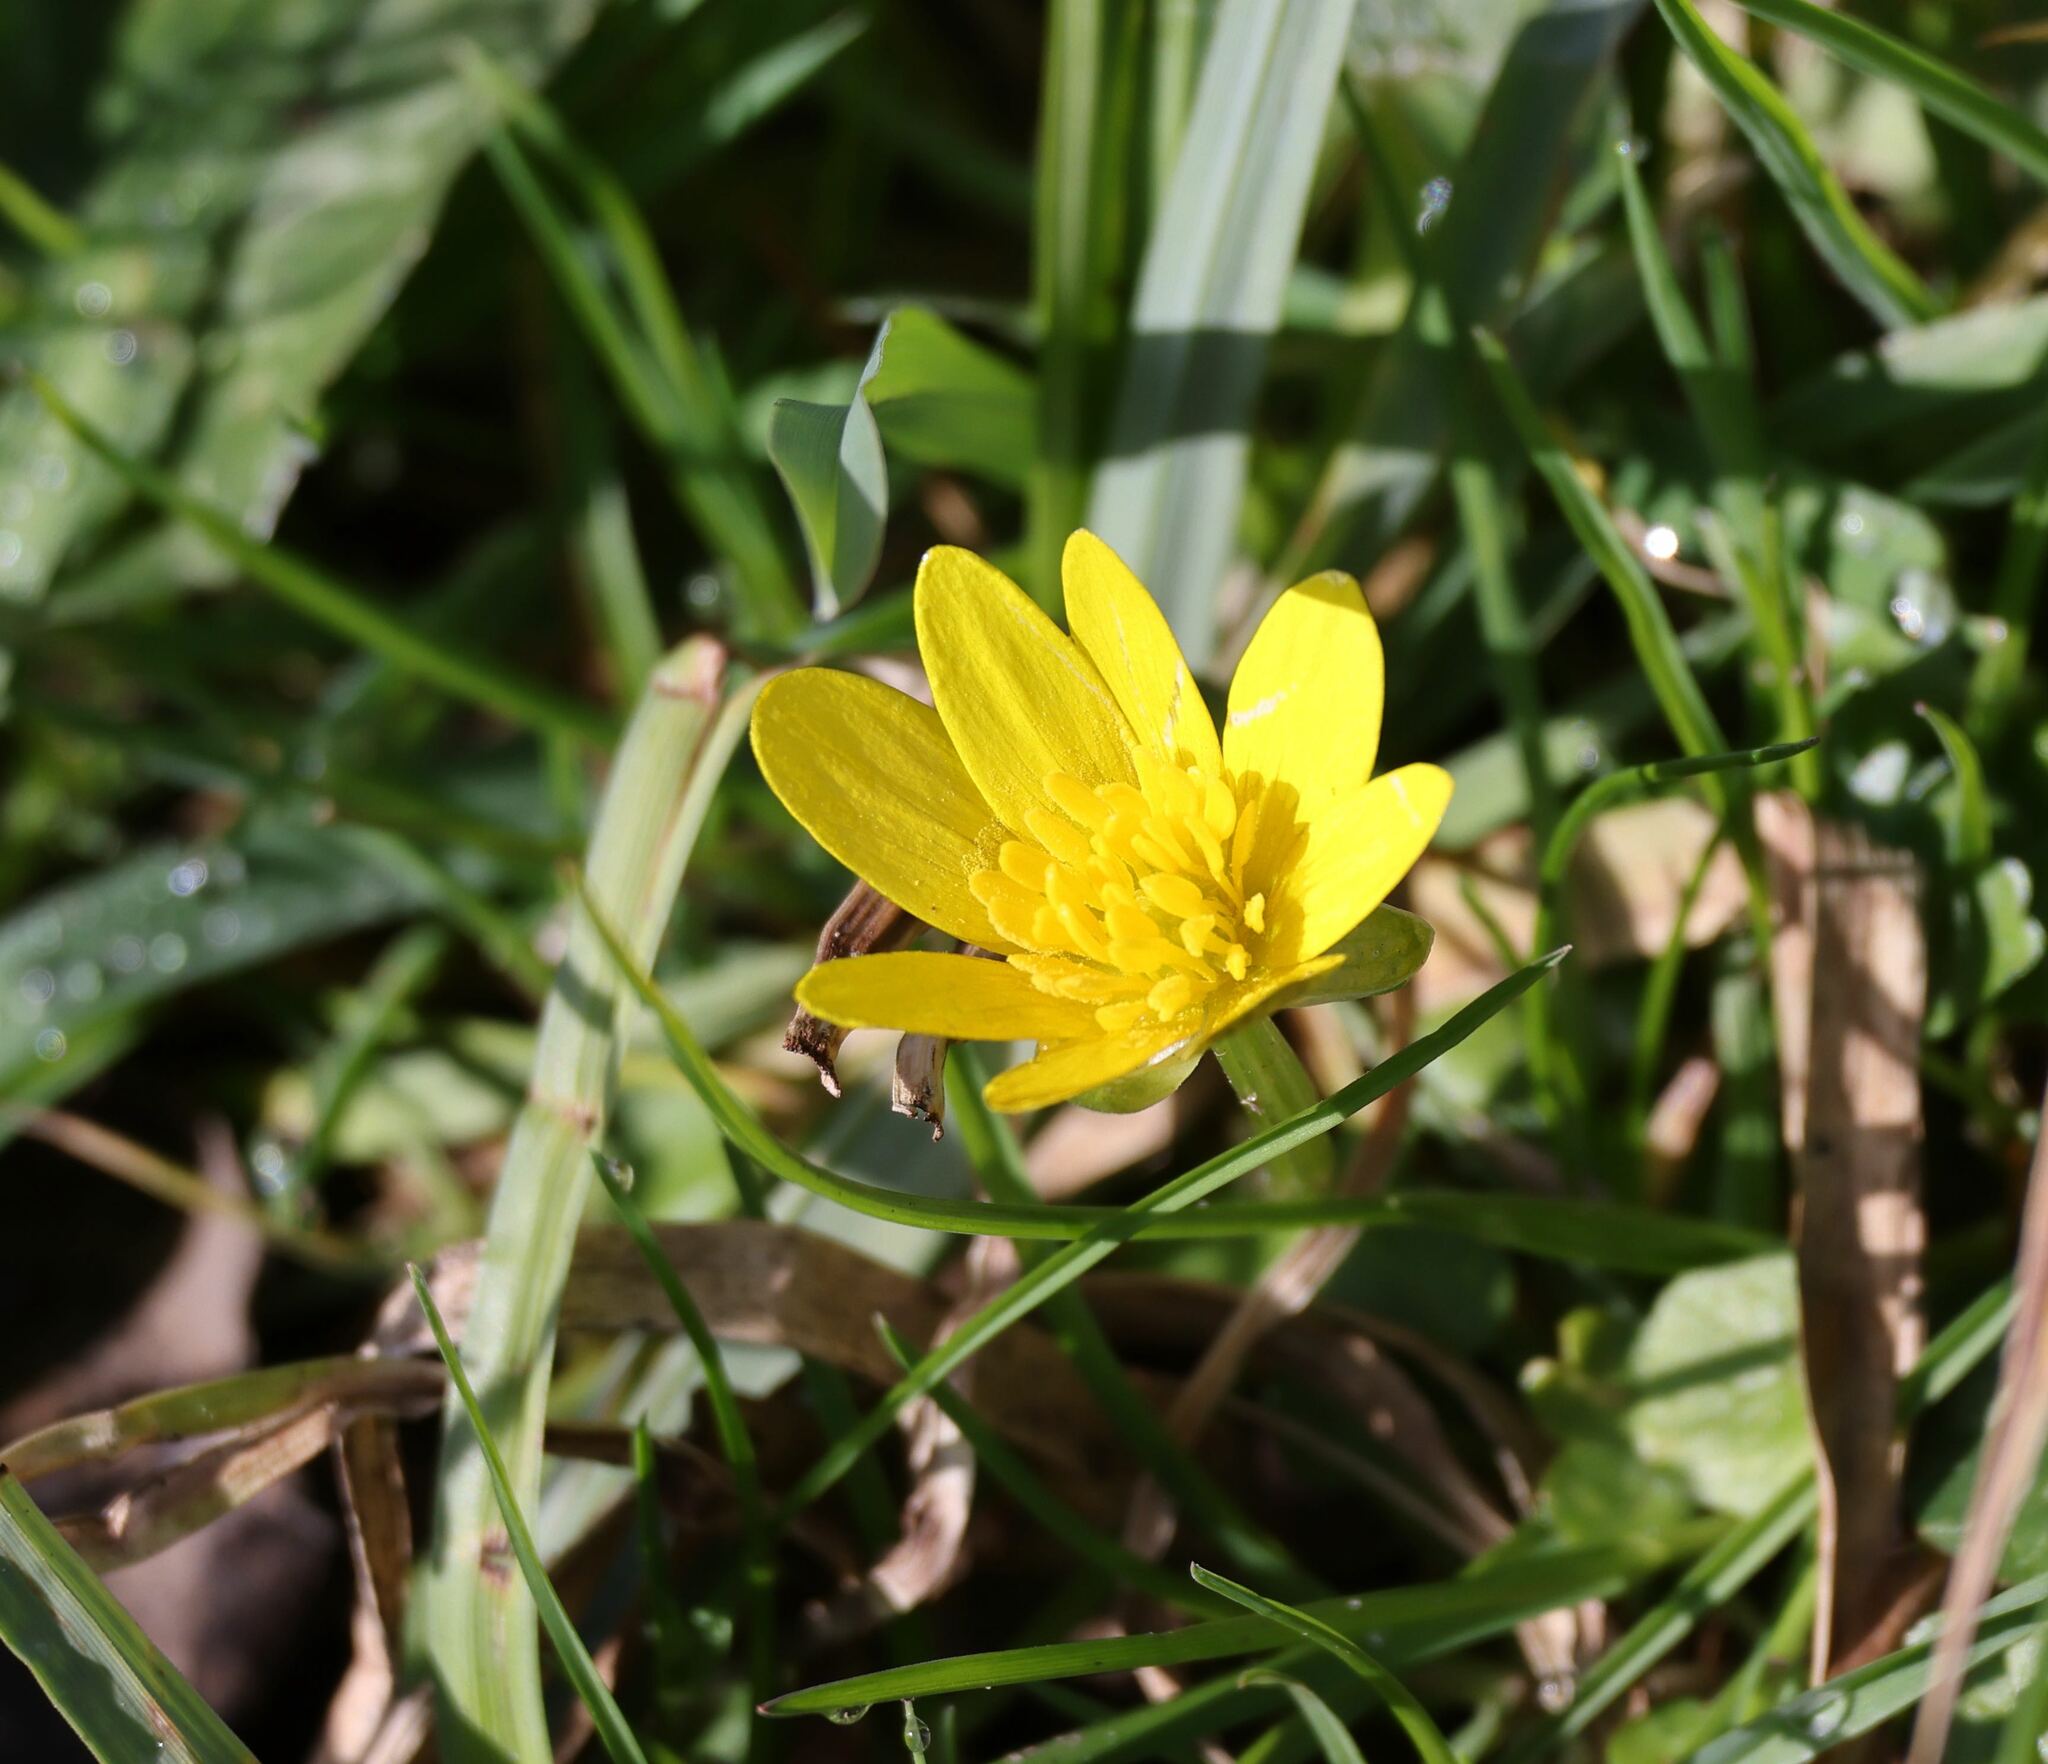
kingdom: Plantae
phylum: Tracheophyta
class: Magnoliopsida
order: Ranunculales
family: Ranunculaceae
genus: Ficaria
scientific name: Ficaria verna
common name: Lesser celandine
